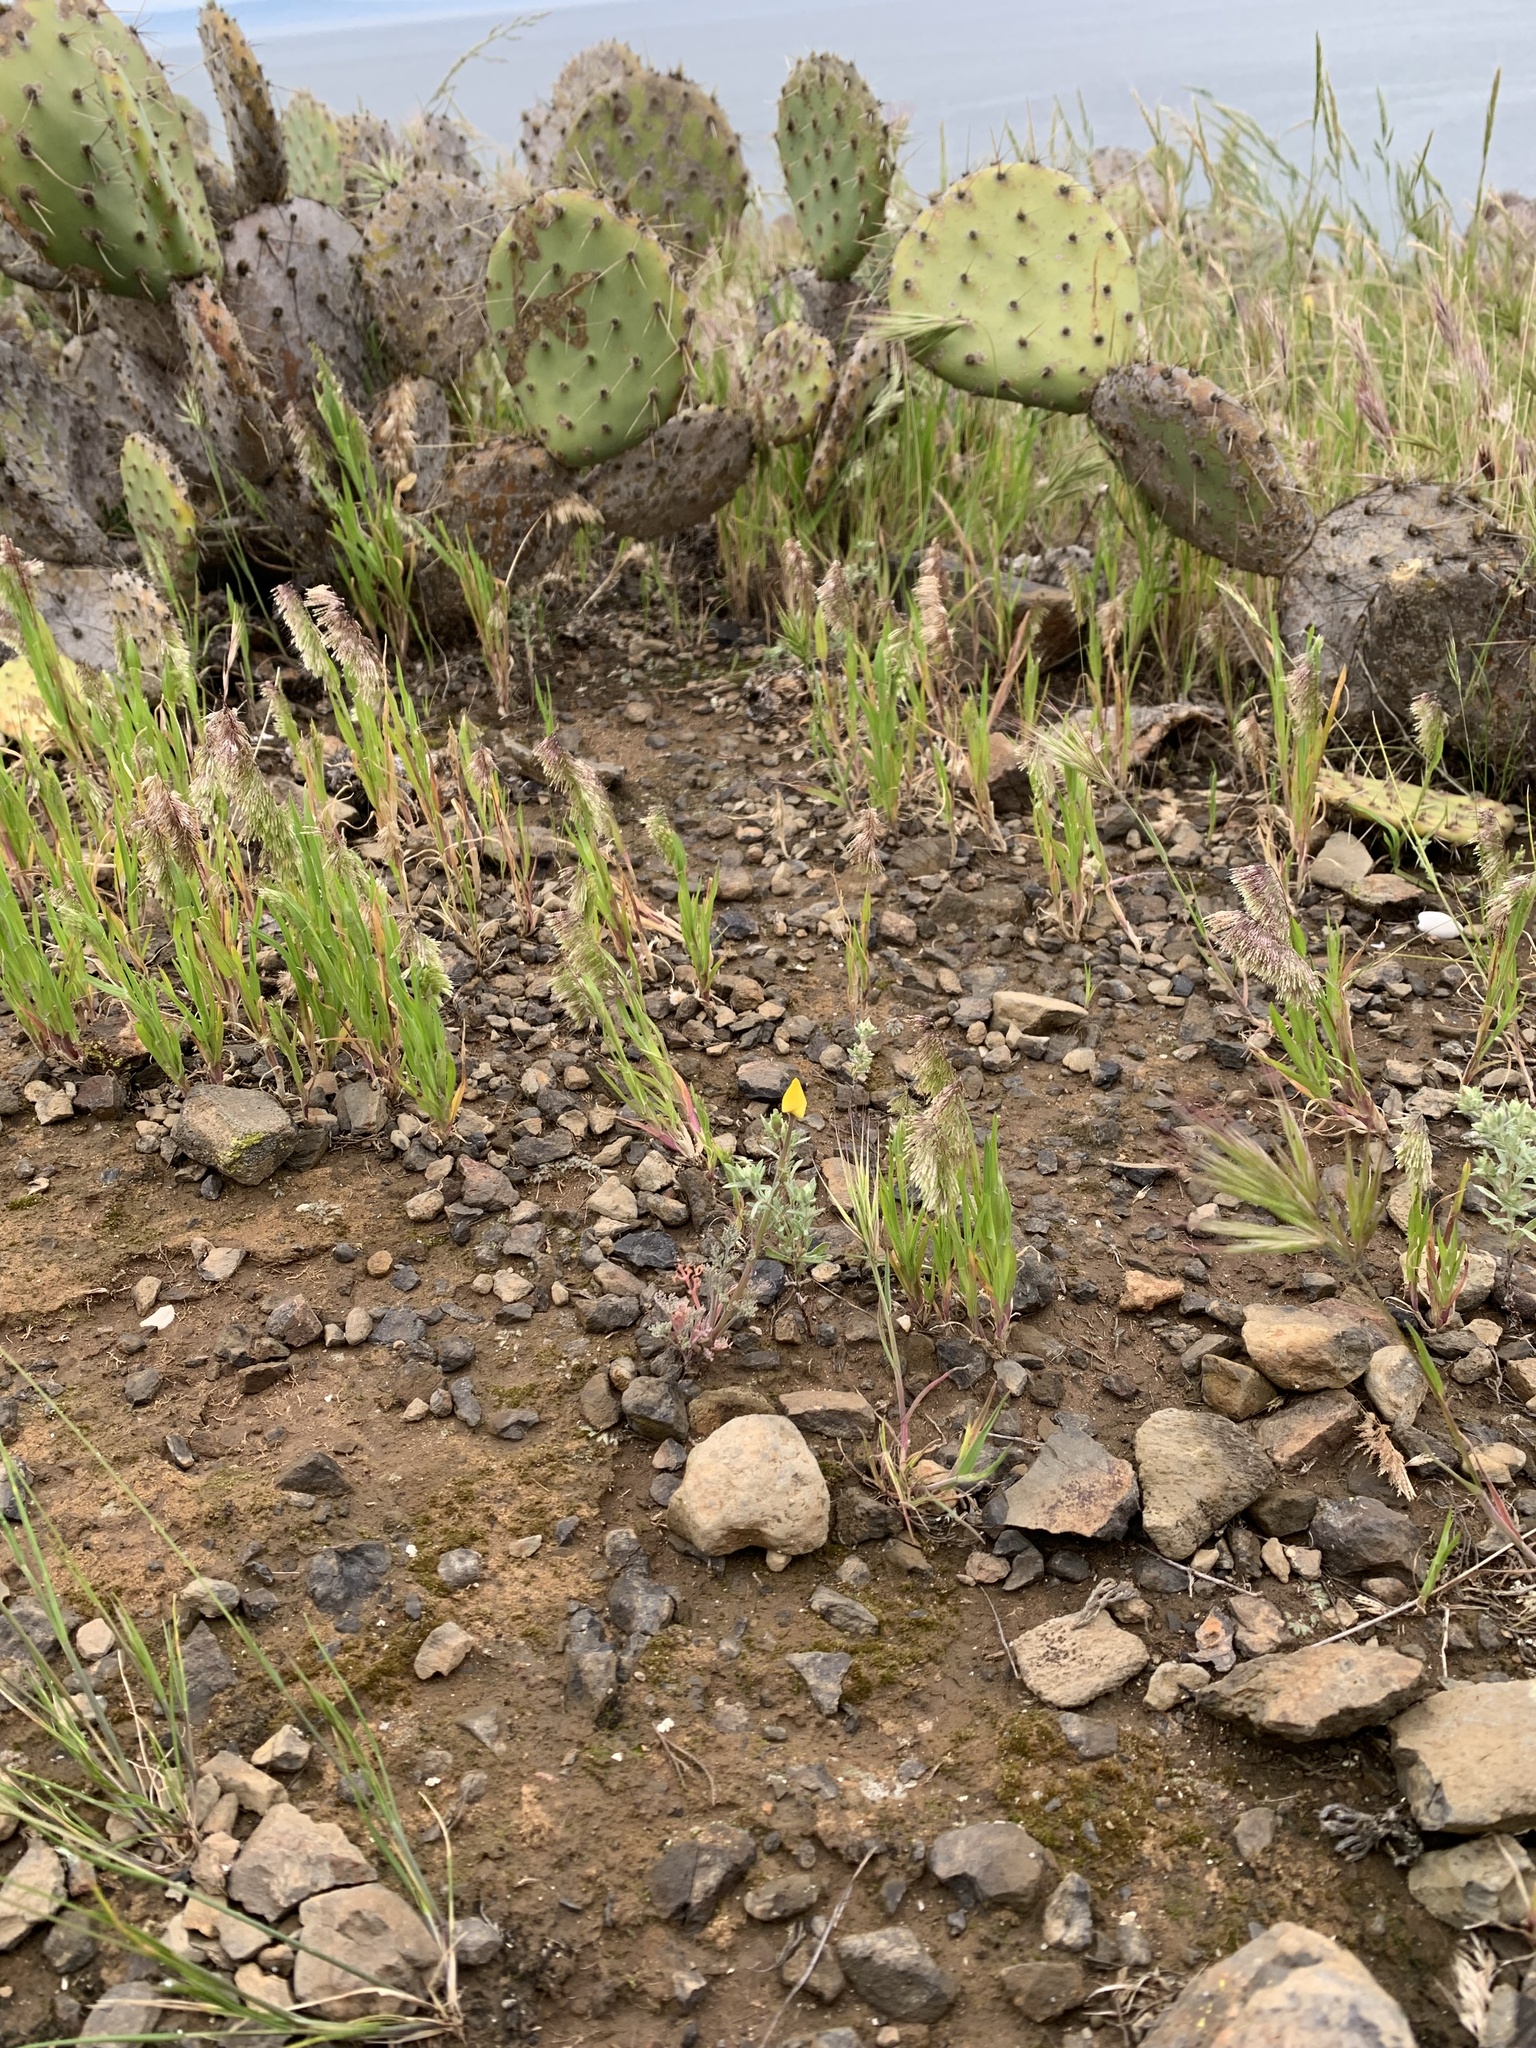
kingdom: Plantae
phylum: Tracheophyta
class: Magnoliopsida
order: Ranunculales
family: Papaveraceae
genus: Eschscholzia
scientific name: Eschscholzia ramosa
